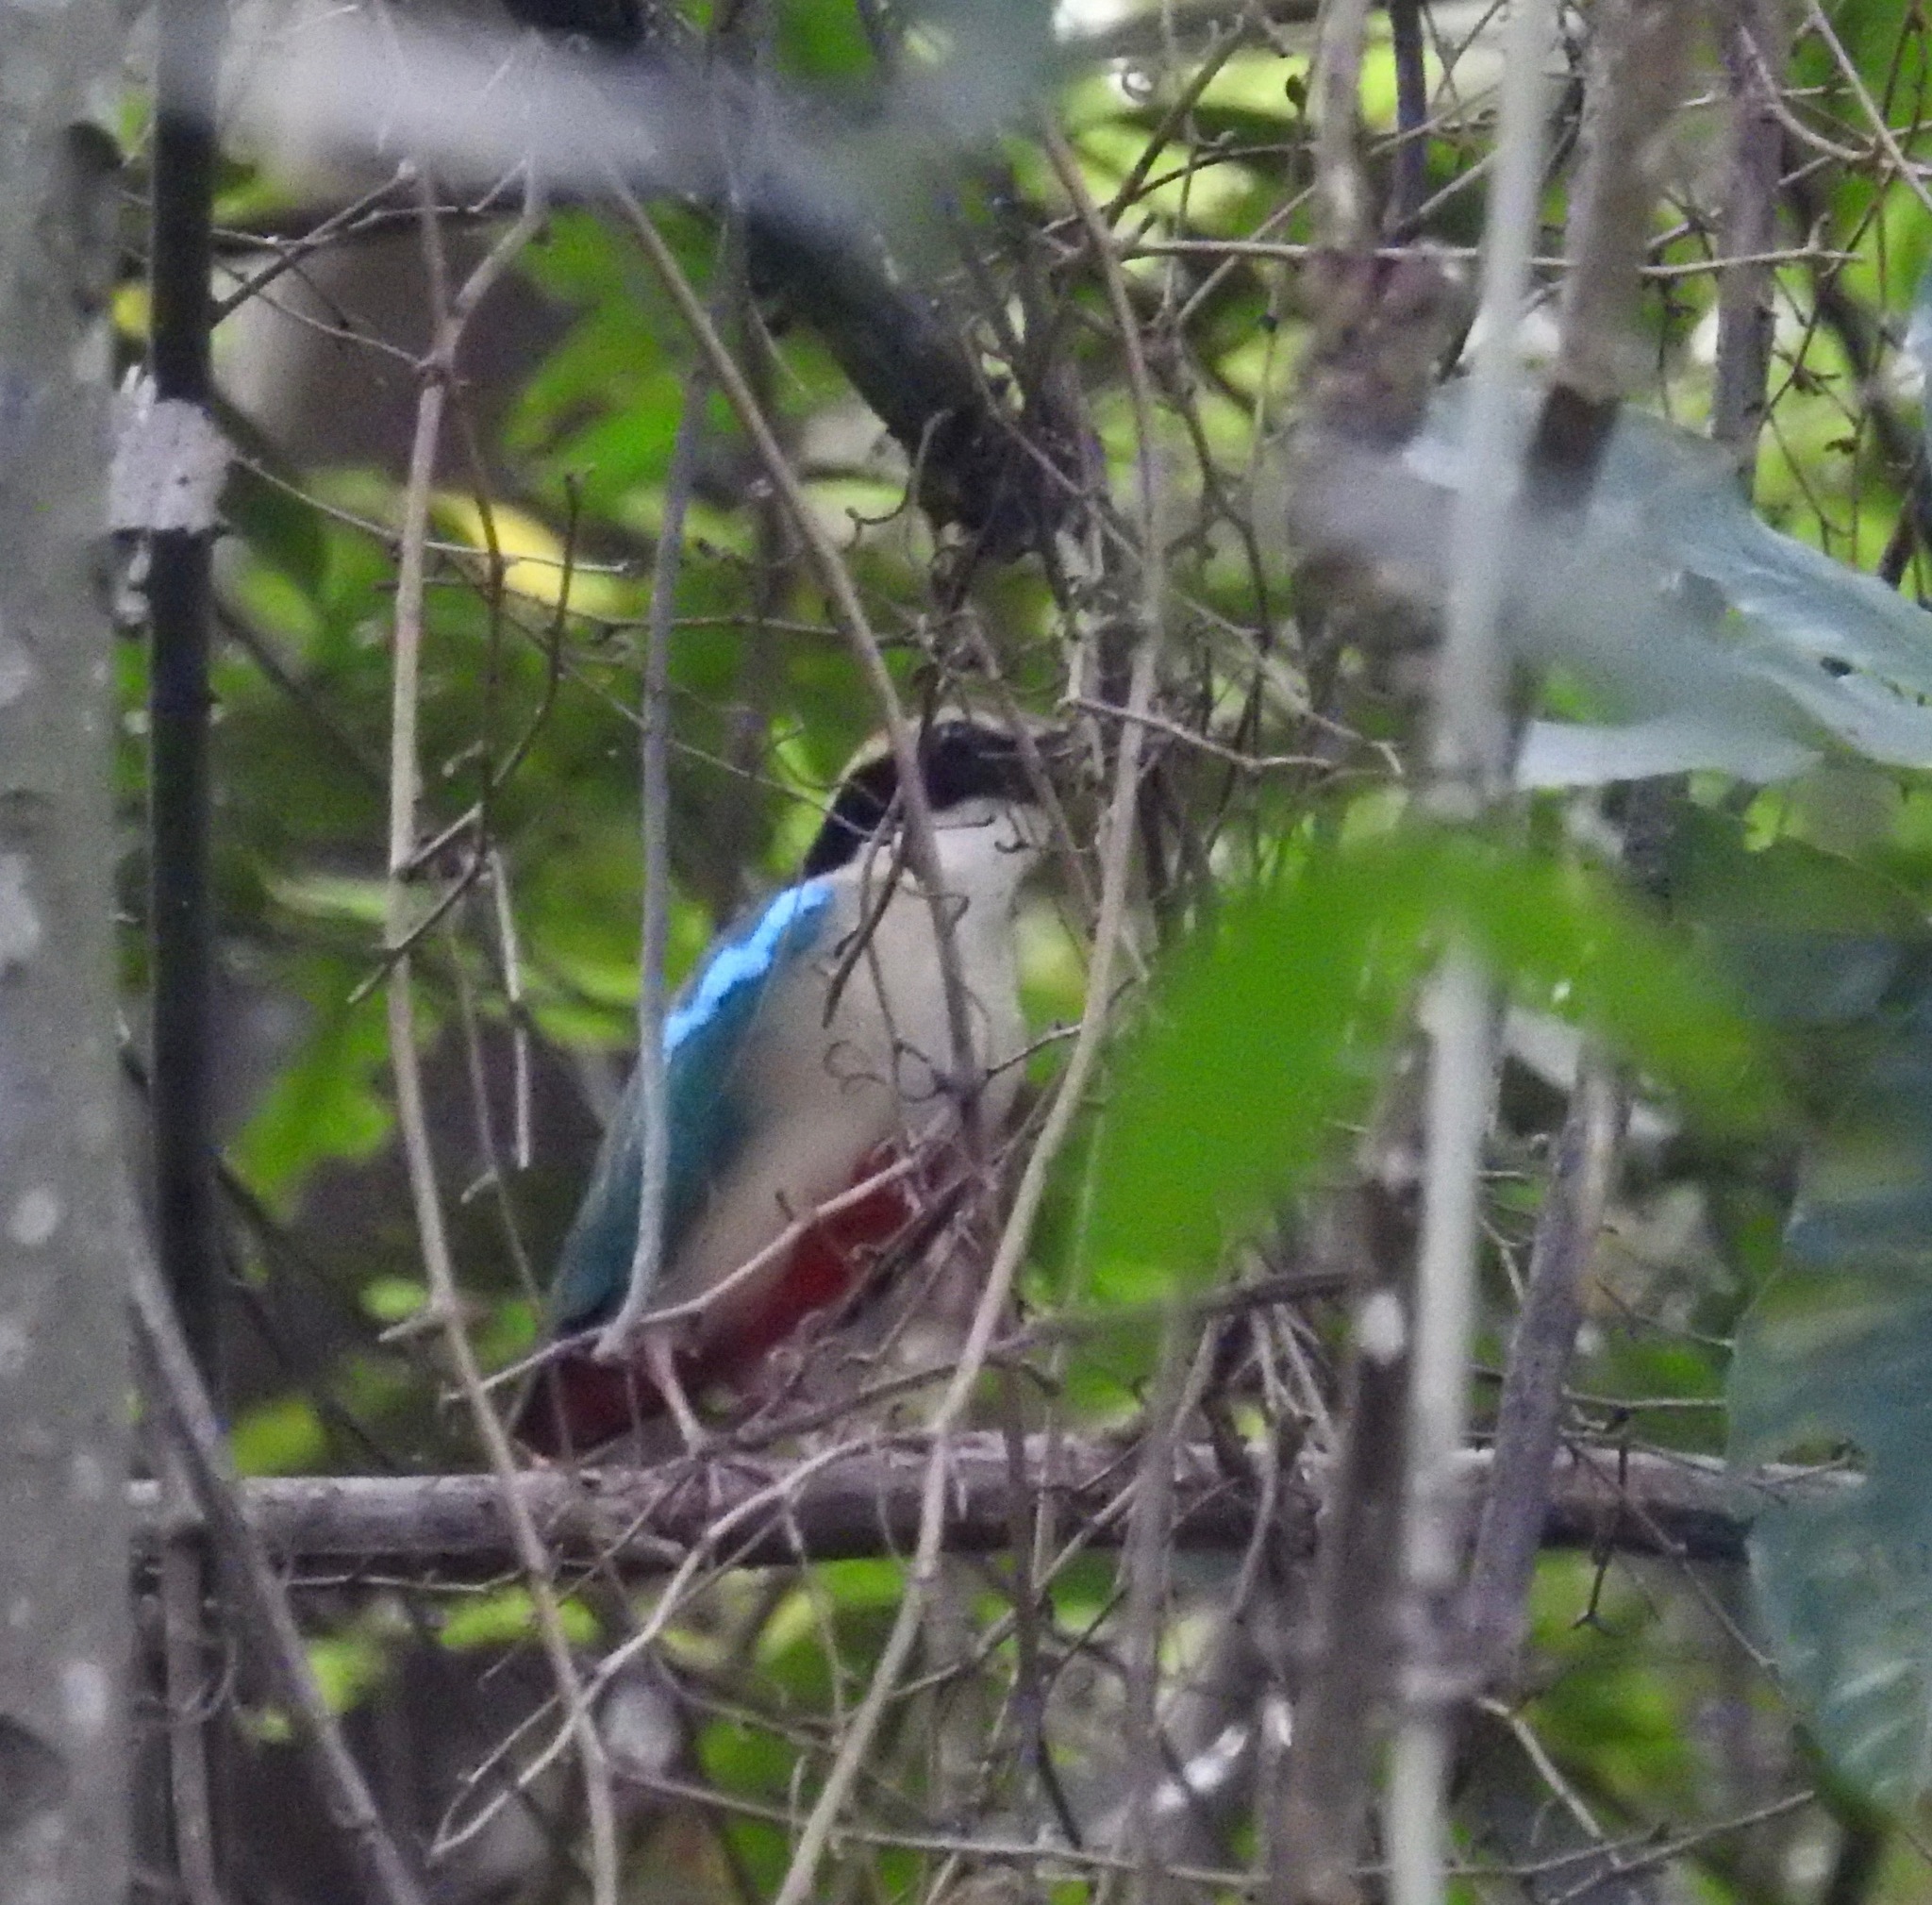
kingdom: Animalia
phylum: Chordata
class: Aves
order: Passeriformes
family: Pittidae
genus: Pitta
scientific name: Pitta nympha
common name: Fairy pitta
